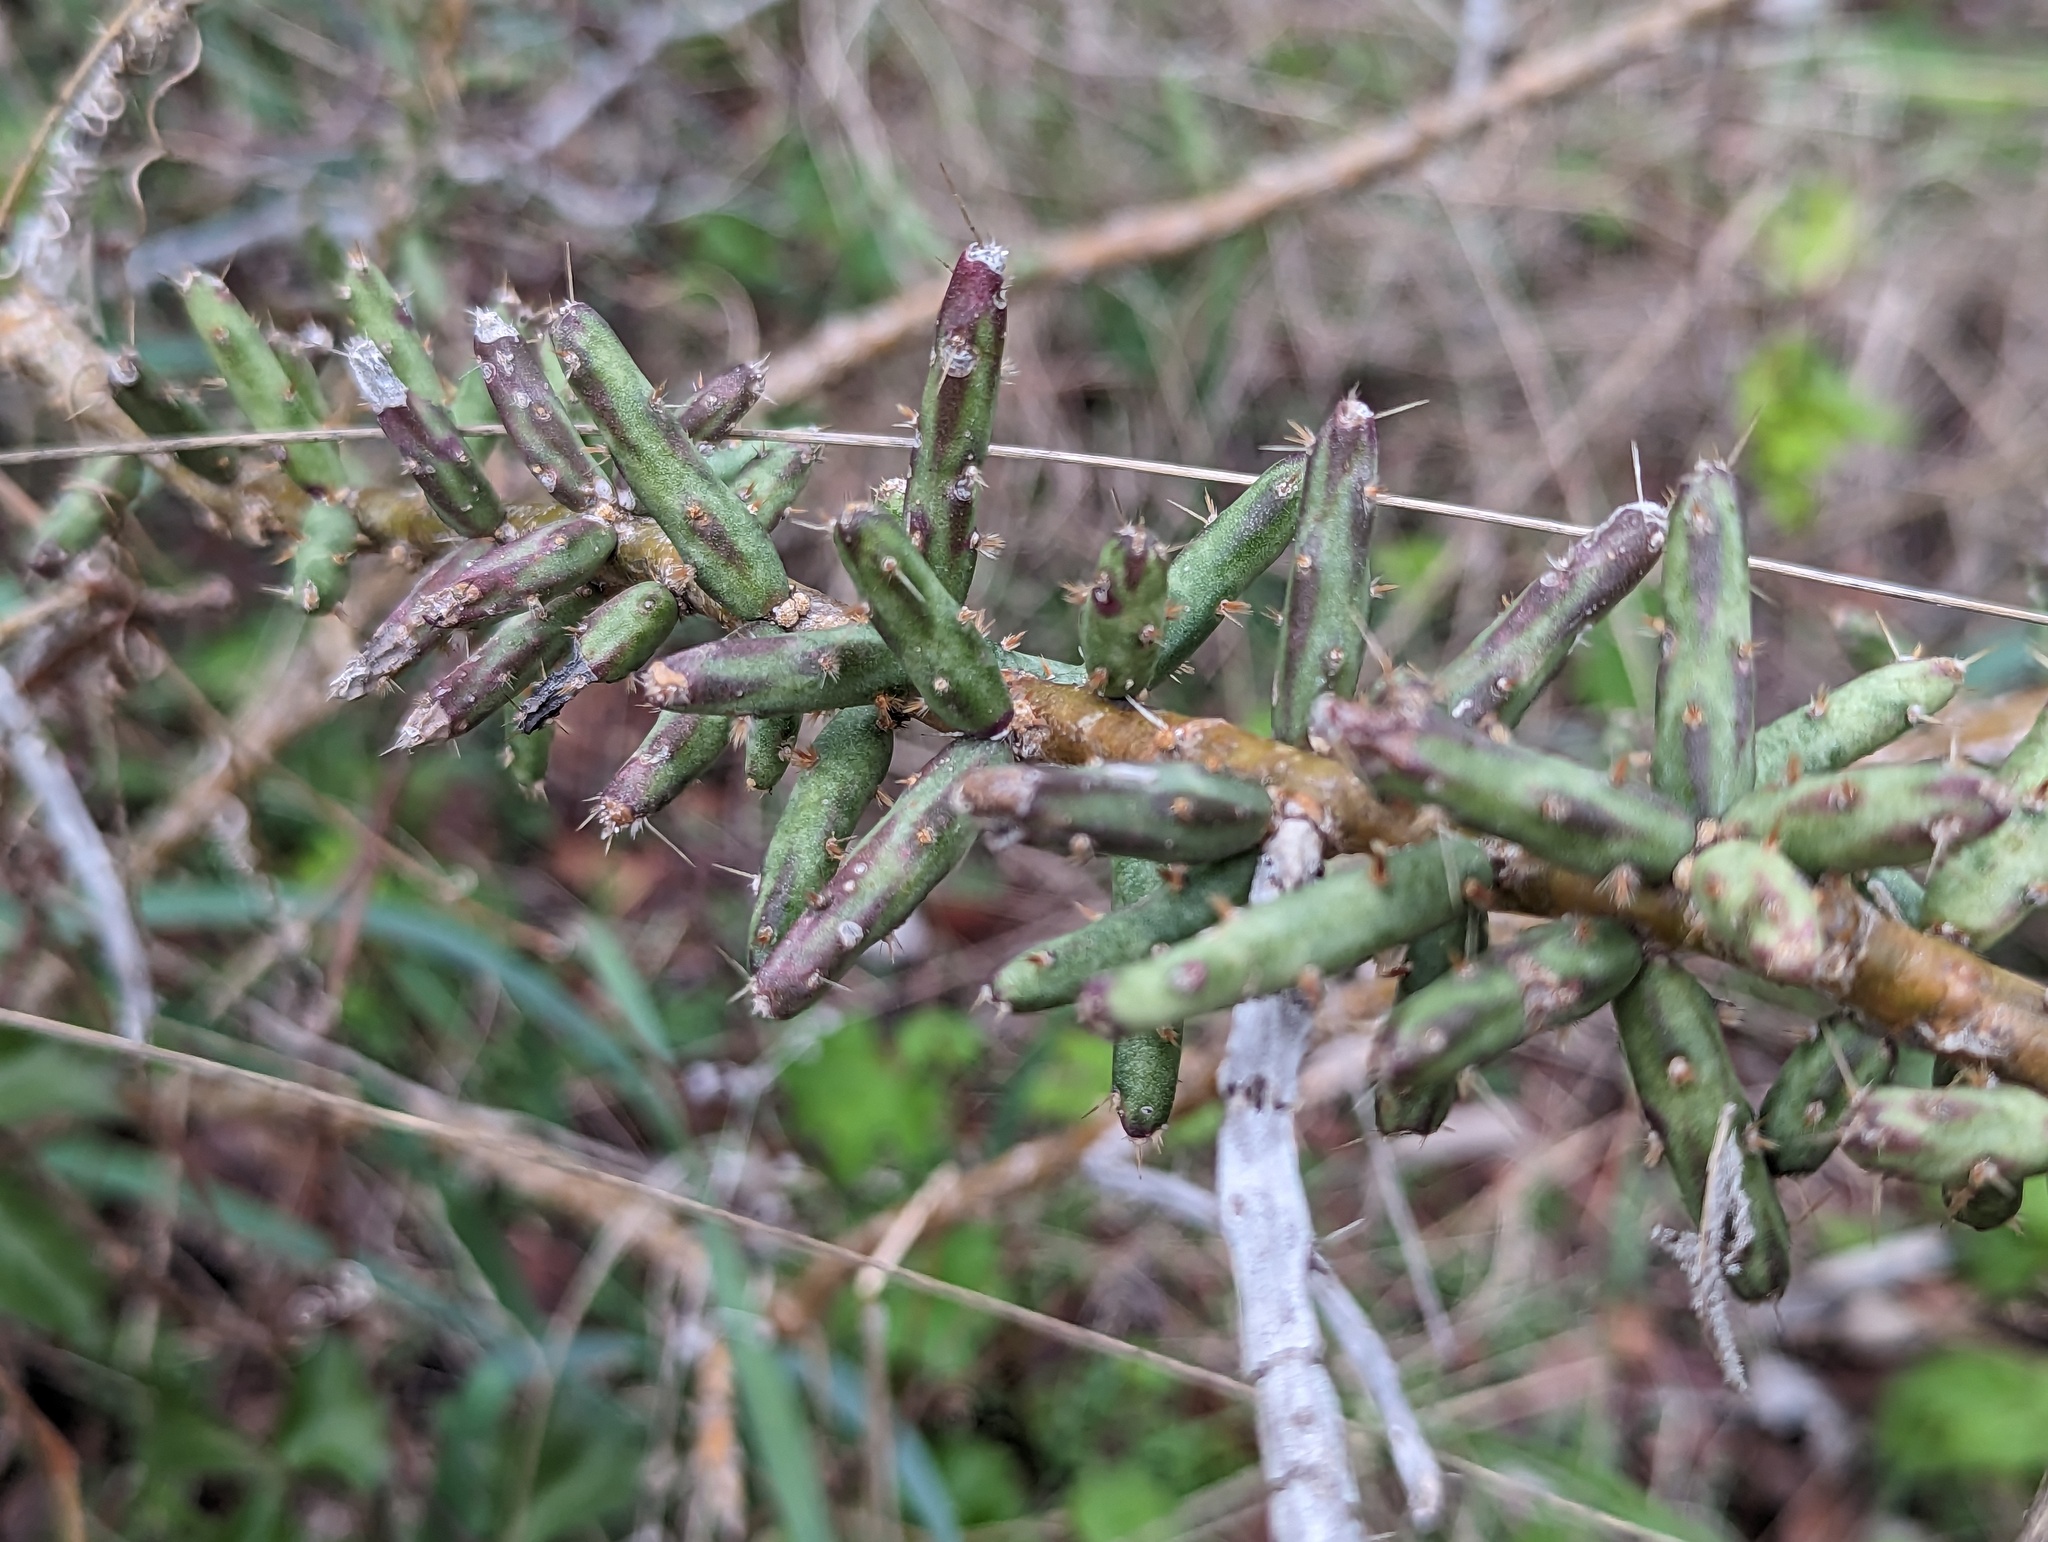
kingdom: Plantae
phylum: Tracheophyta
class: Magnoliopsida
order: Caryophyllales
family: Cactaceae
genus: Cylindropuntia
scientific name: Cylindropuntia leptocaulis
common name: Christmas cactus
